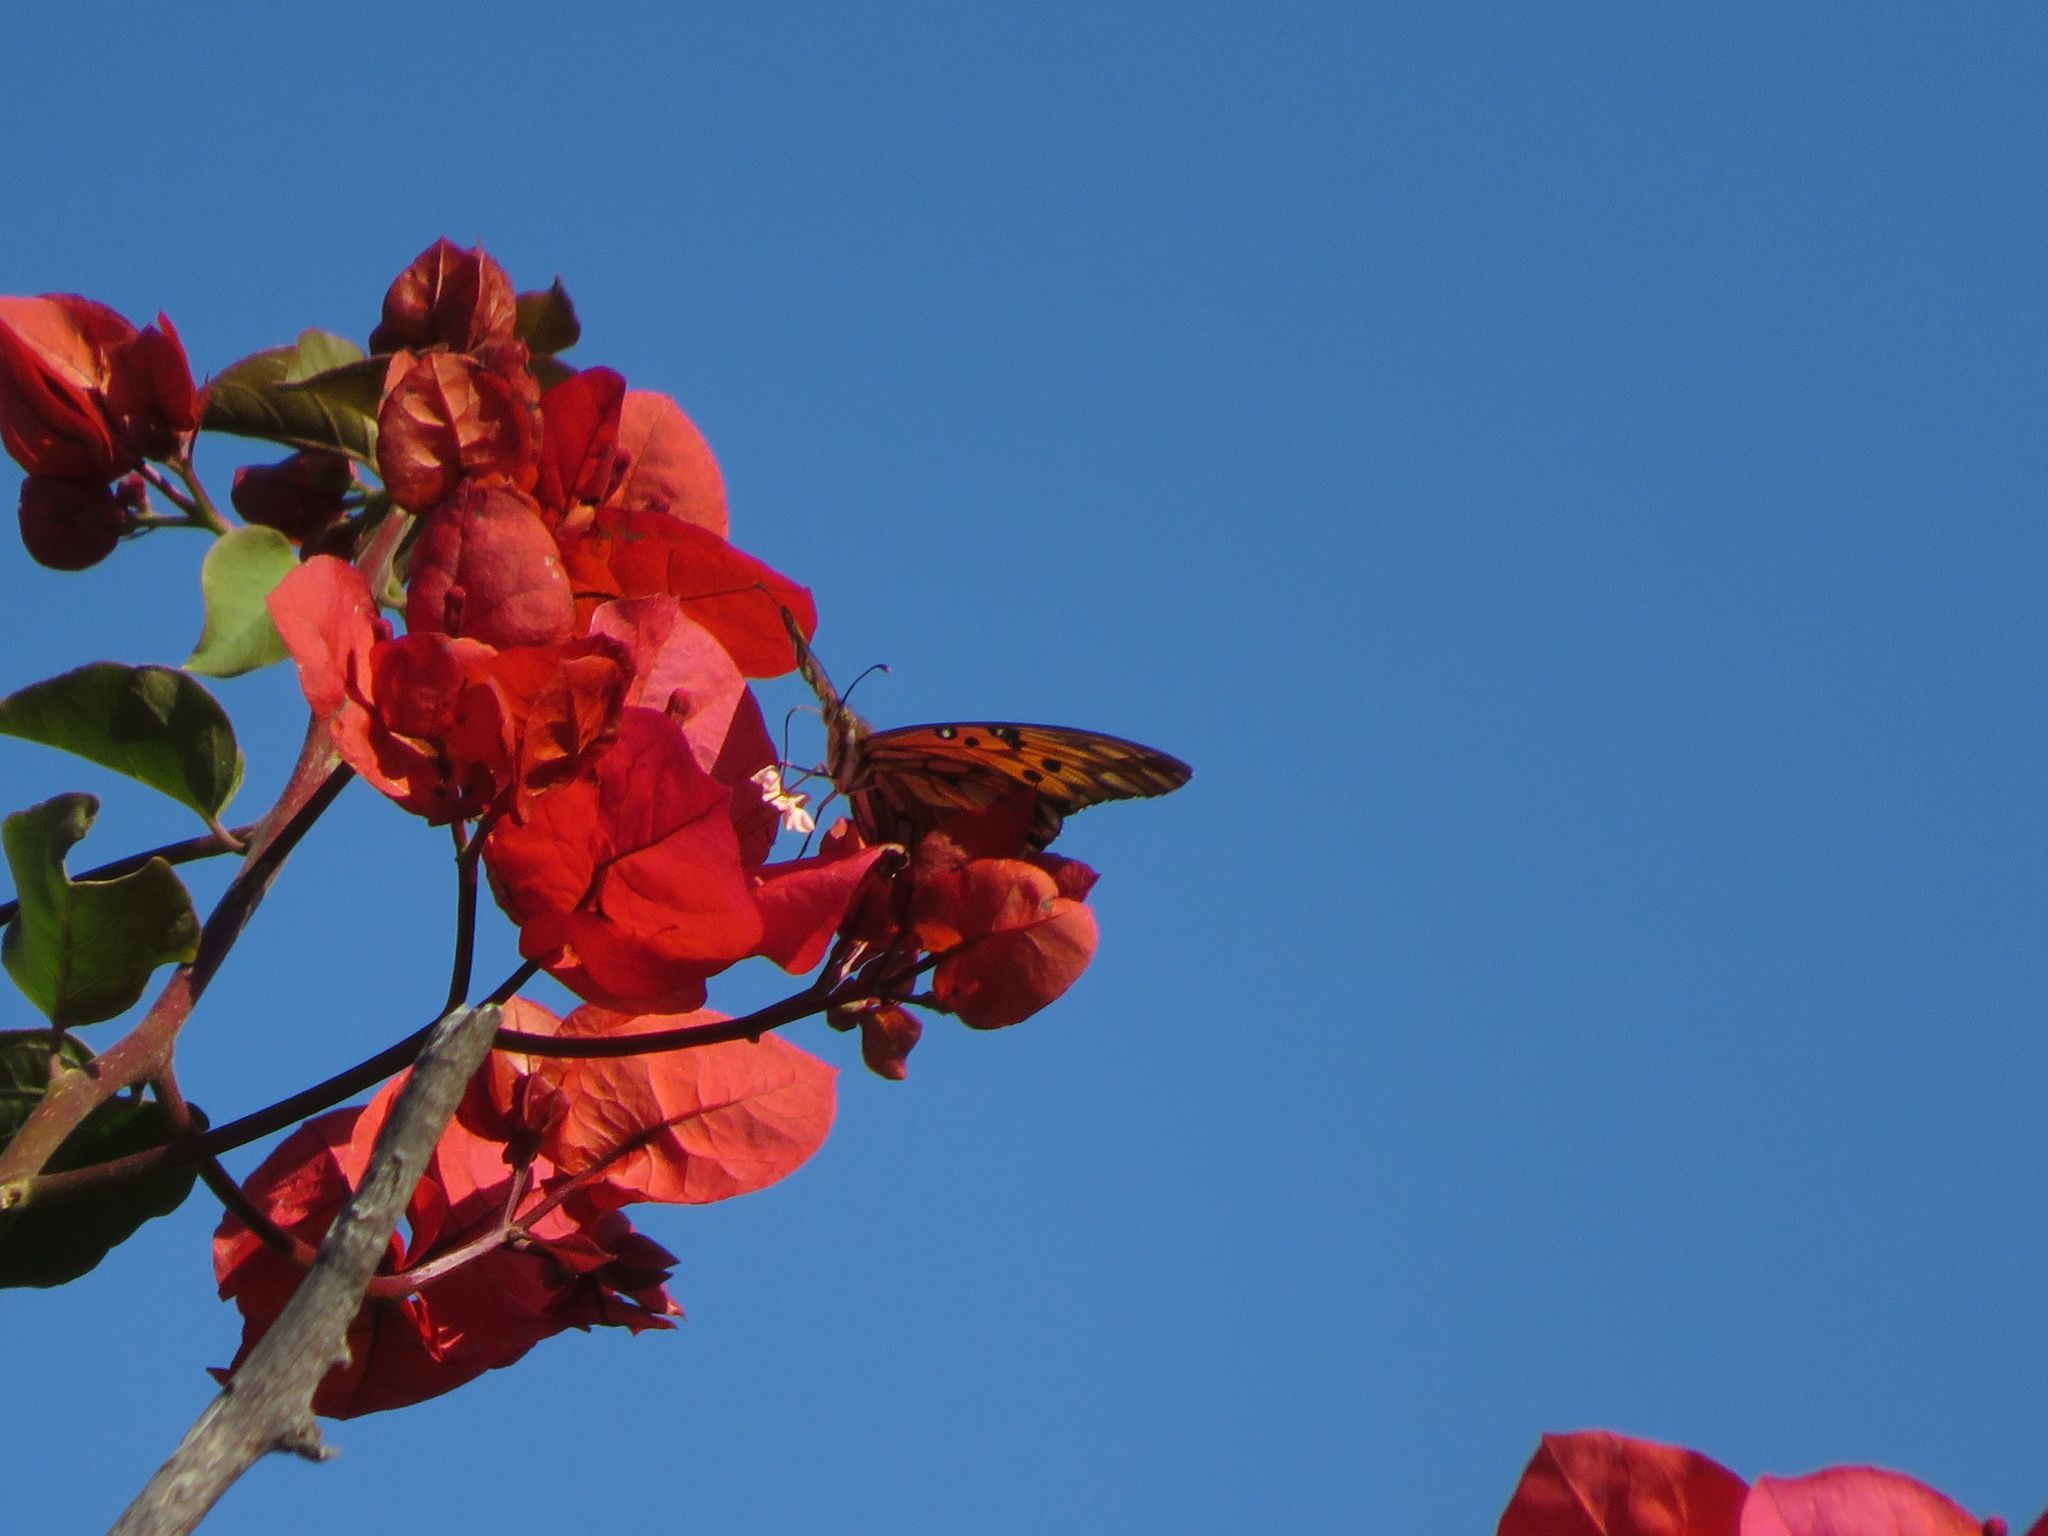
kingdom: Animalia
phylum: Arthropoda
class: Insecta
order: Lepidoptera
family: Nymphalidae
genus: Dione
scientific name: Dione vanillae
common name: Gulf fritillary
